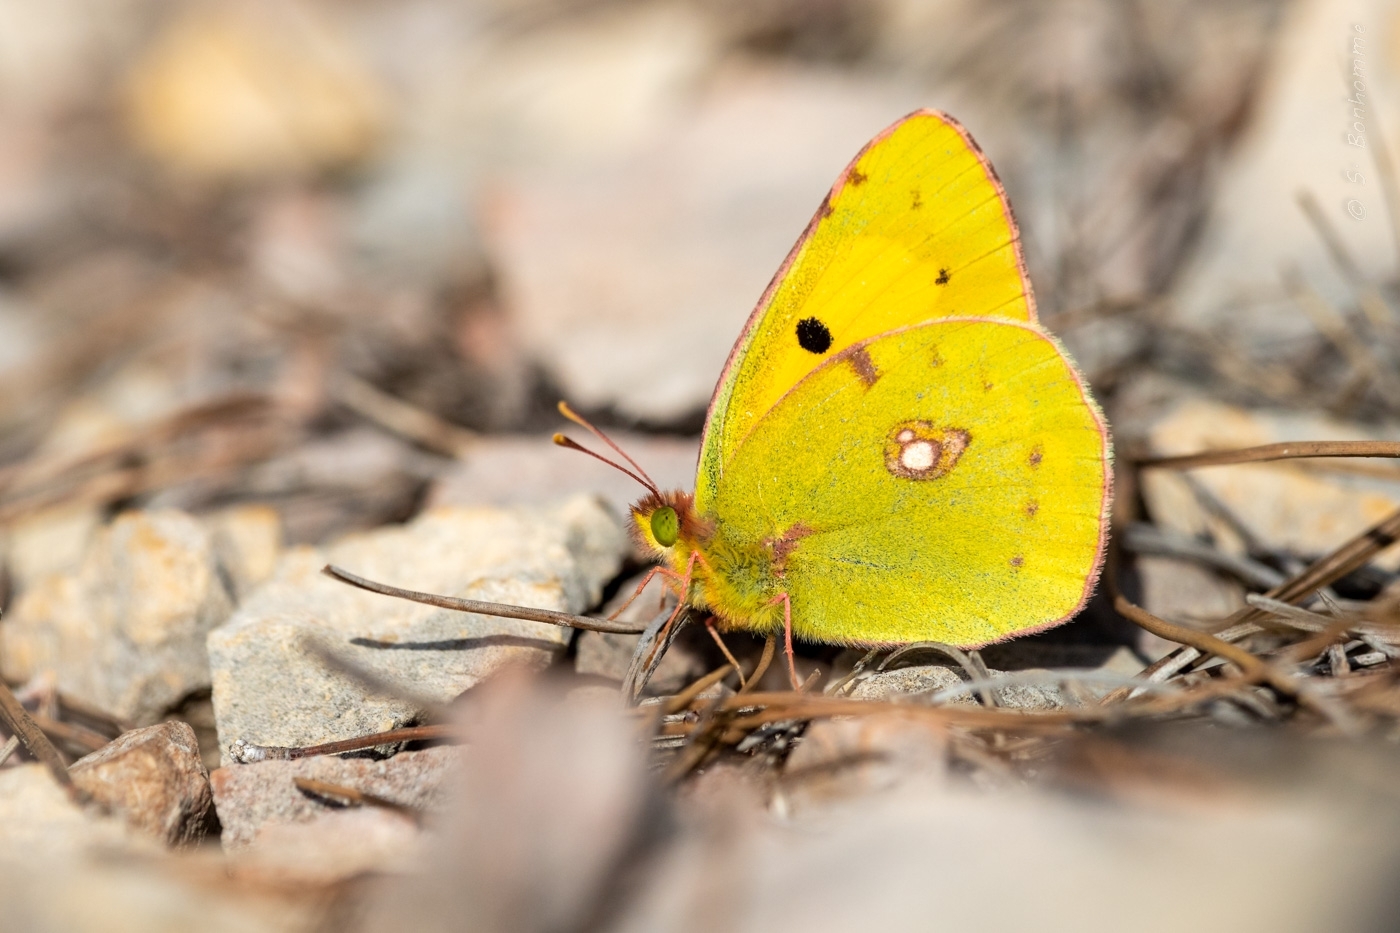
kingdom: Animalia
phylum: Arthropoda
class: Insecta
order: Lepidoptera
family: Pieridae
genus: Colias
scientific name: Colias croceus
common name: Clouded yellow
